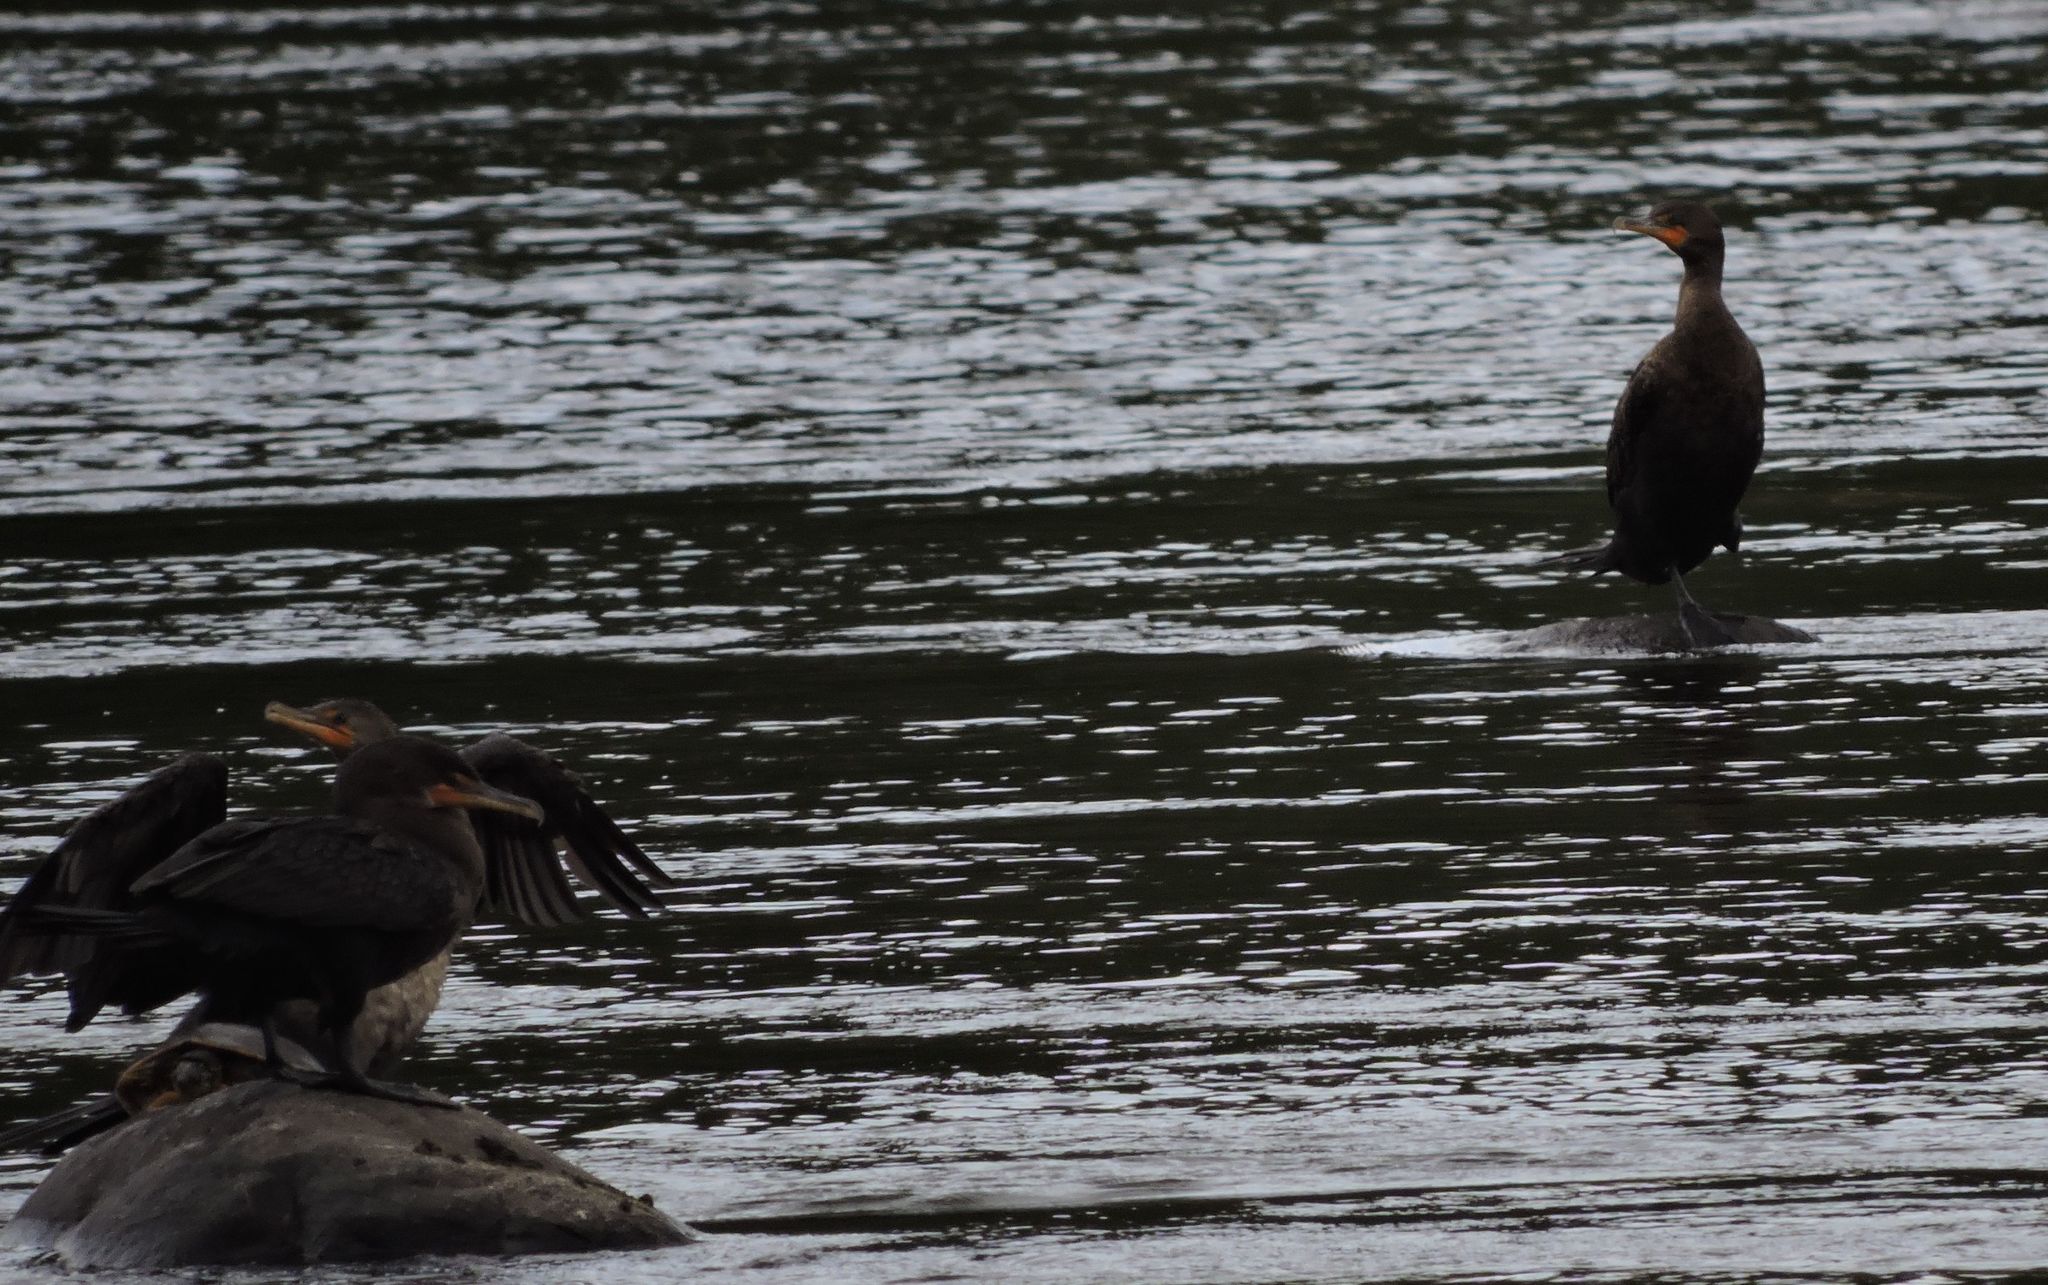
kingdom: Animalia
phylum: Chordata
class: Aves
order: Suliformes
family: Phalacrocoracidae
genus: Phalacrocorax
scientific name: Phalacrocorax auritus
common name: Double-crested cormorant
